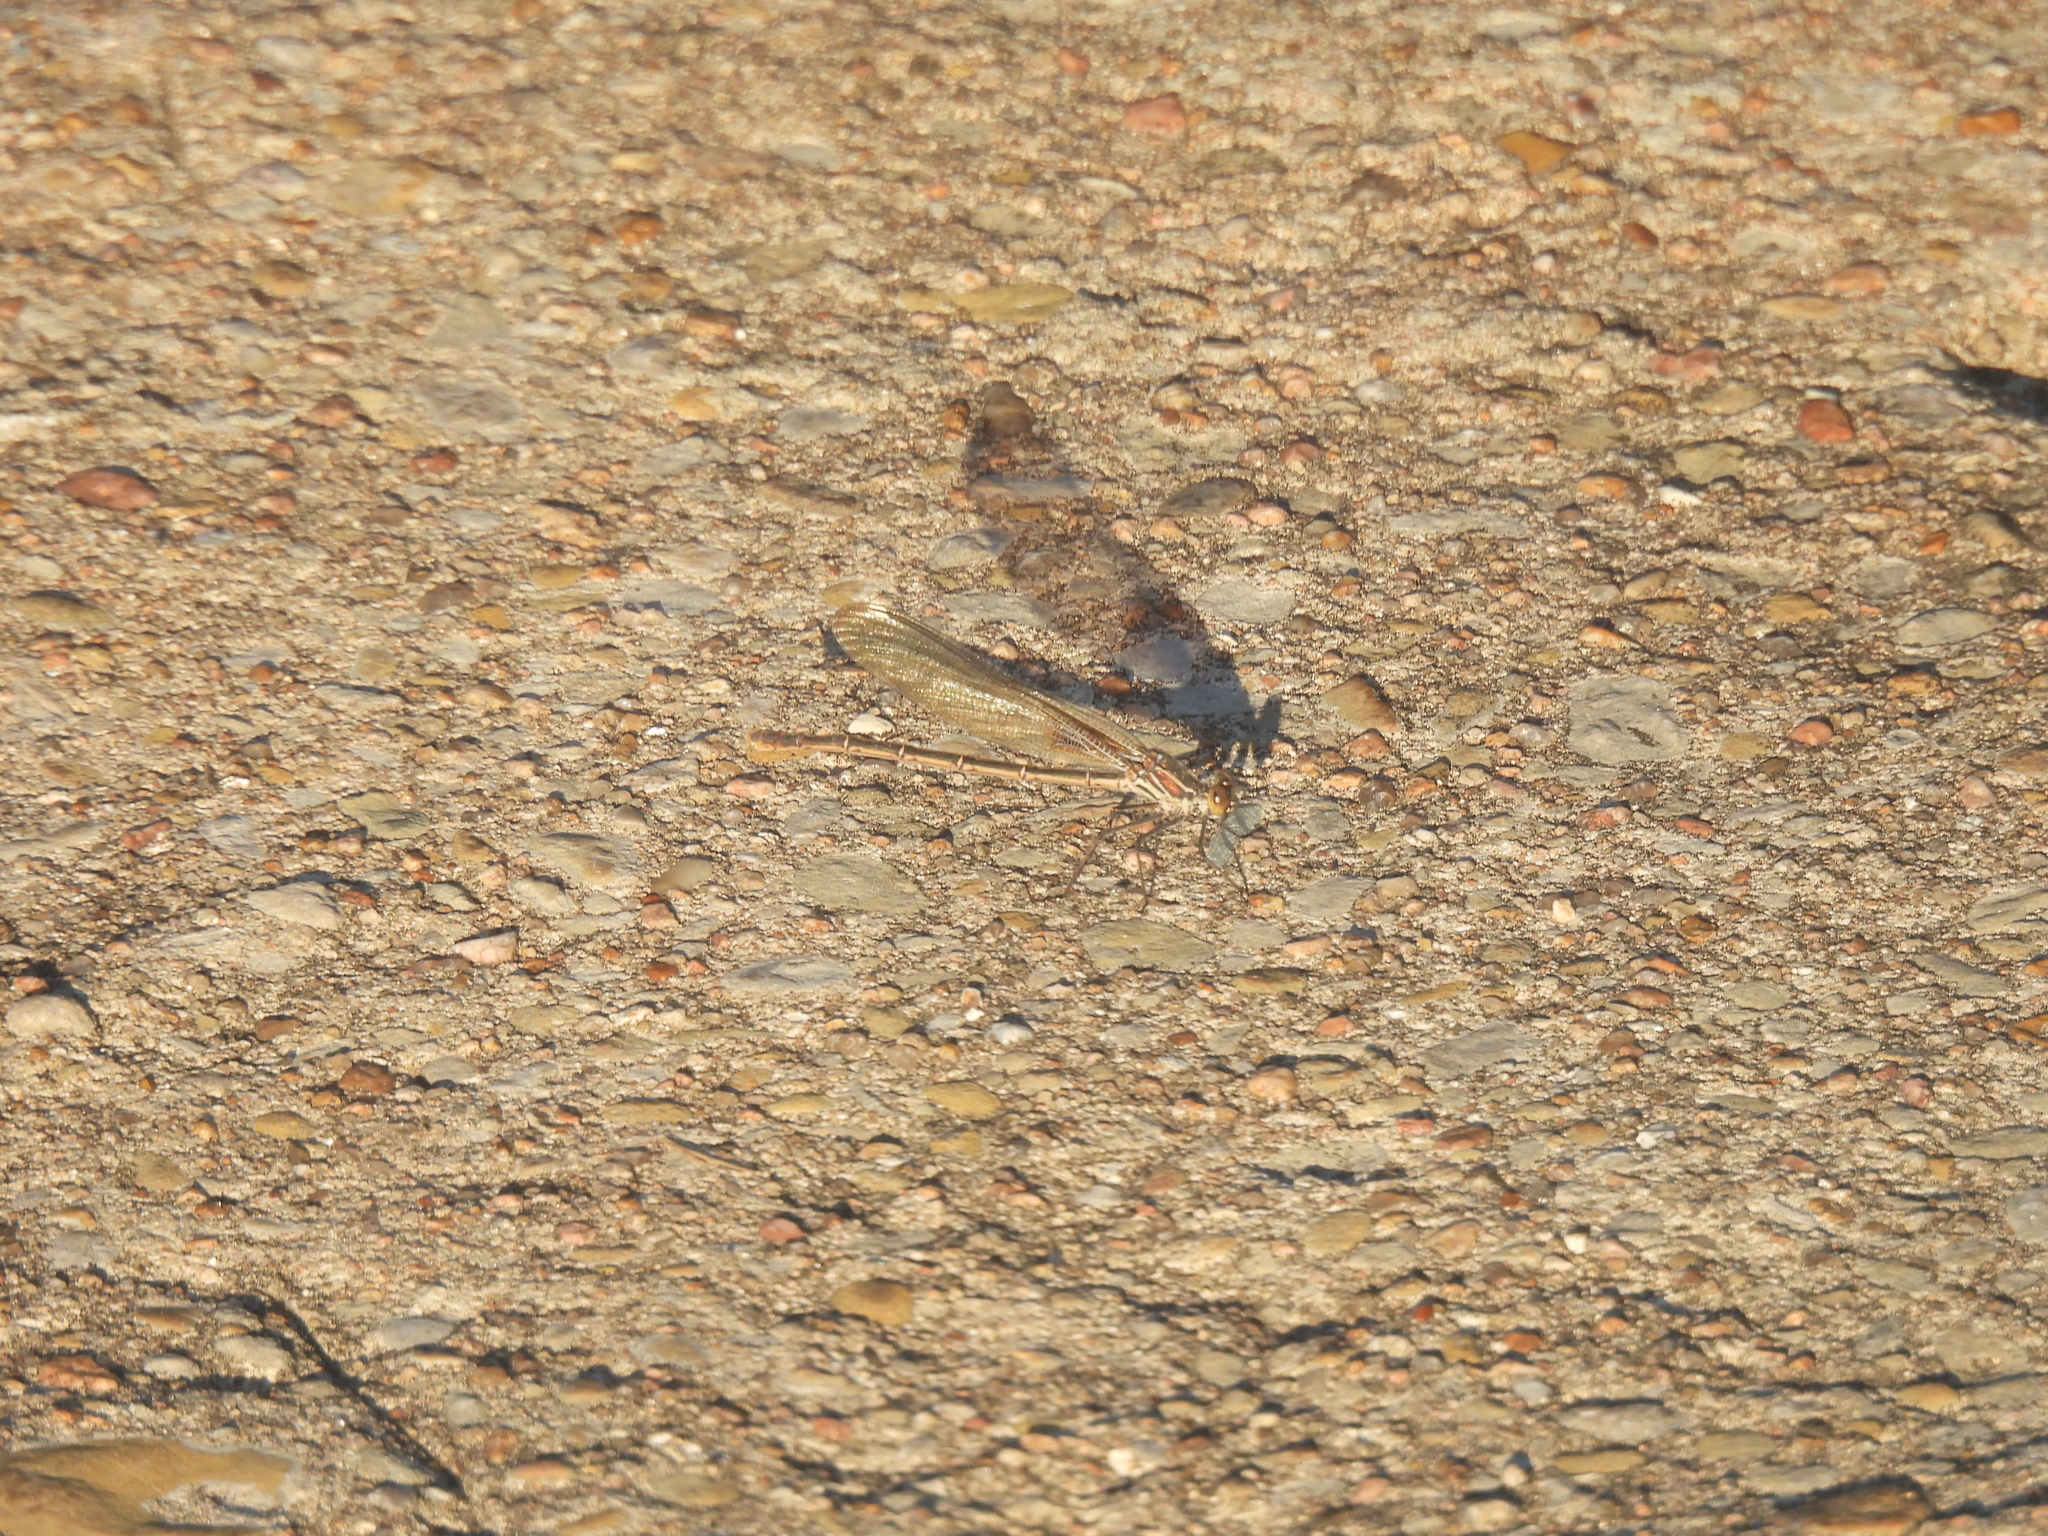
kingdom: Animalia
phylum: Arthropoda
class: Insecta
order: Odonata
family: Calopterygidae
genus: Hetaerina
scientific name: Hetaerina americana
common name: American rubyspot
